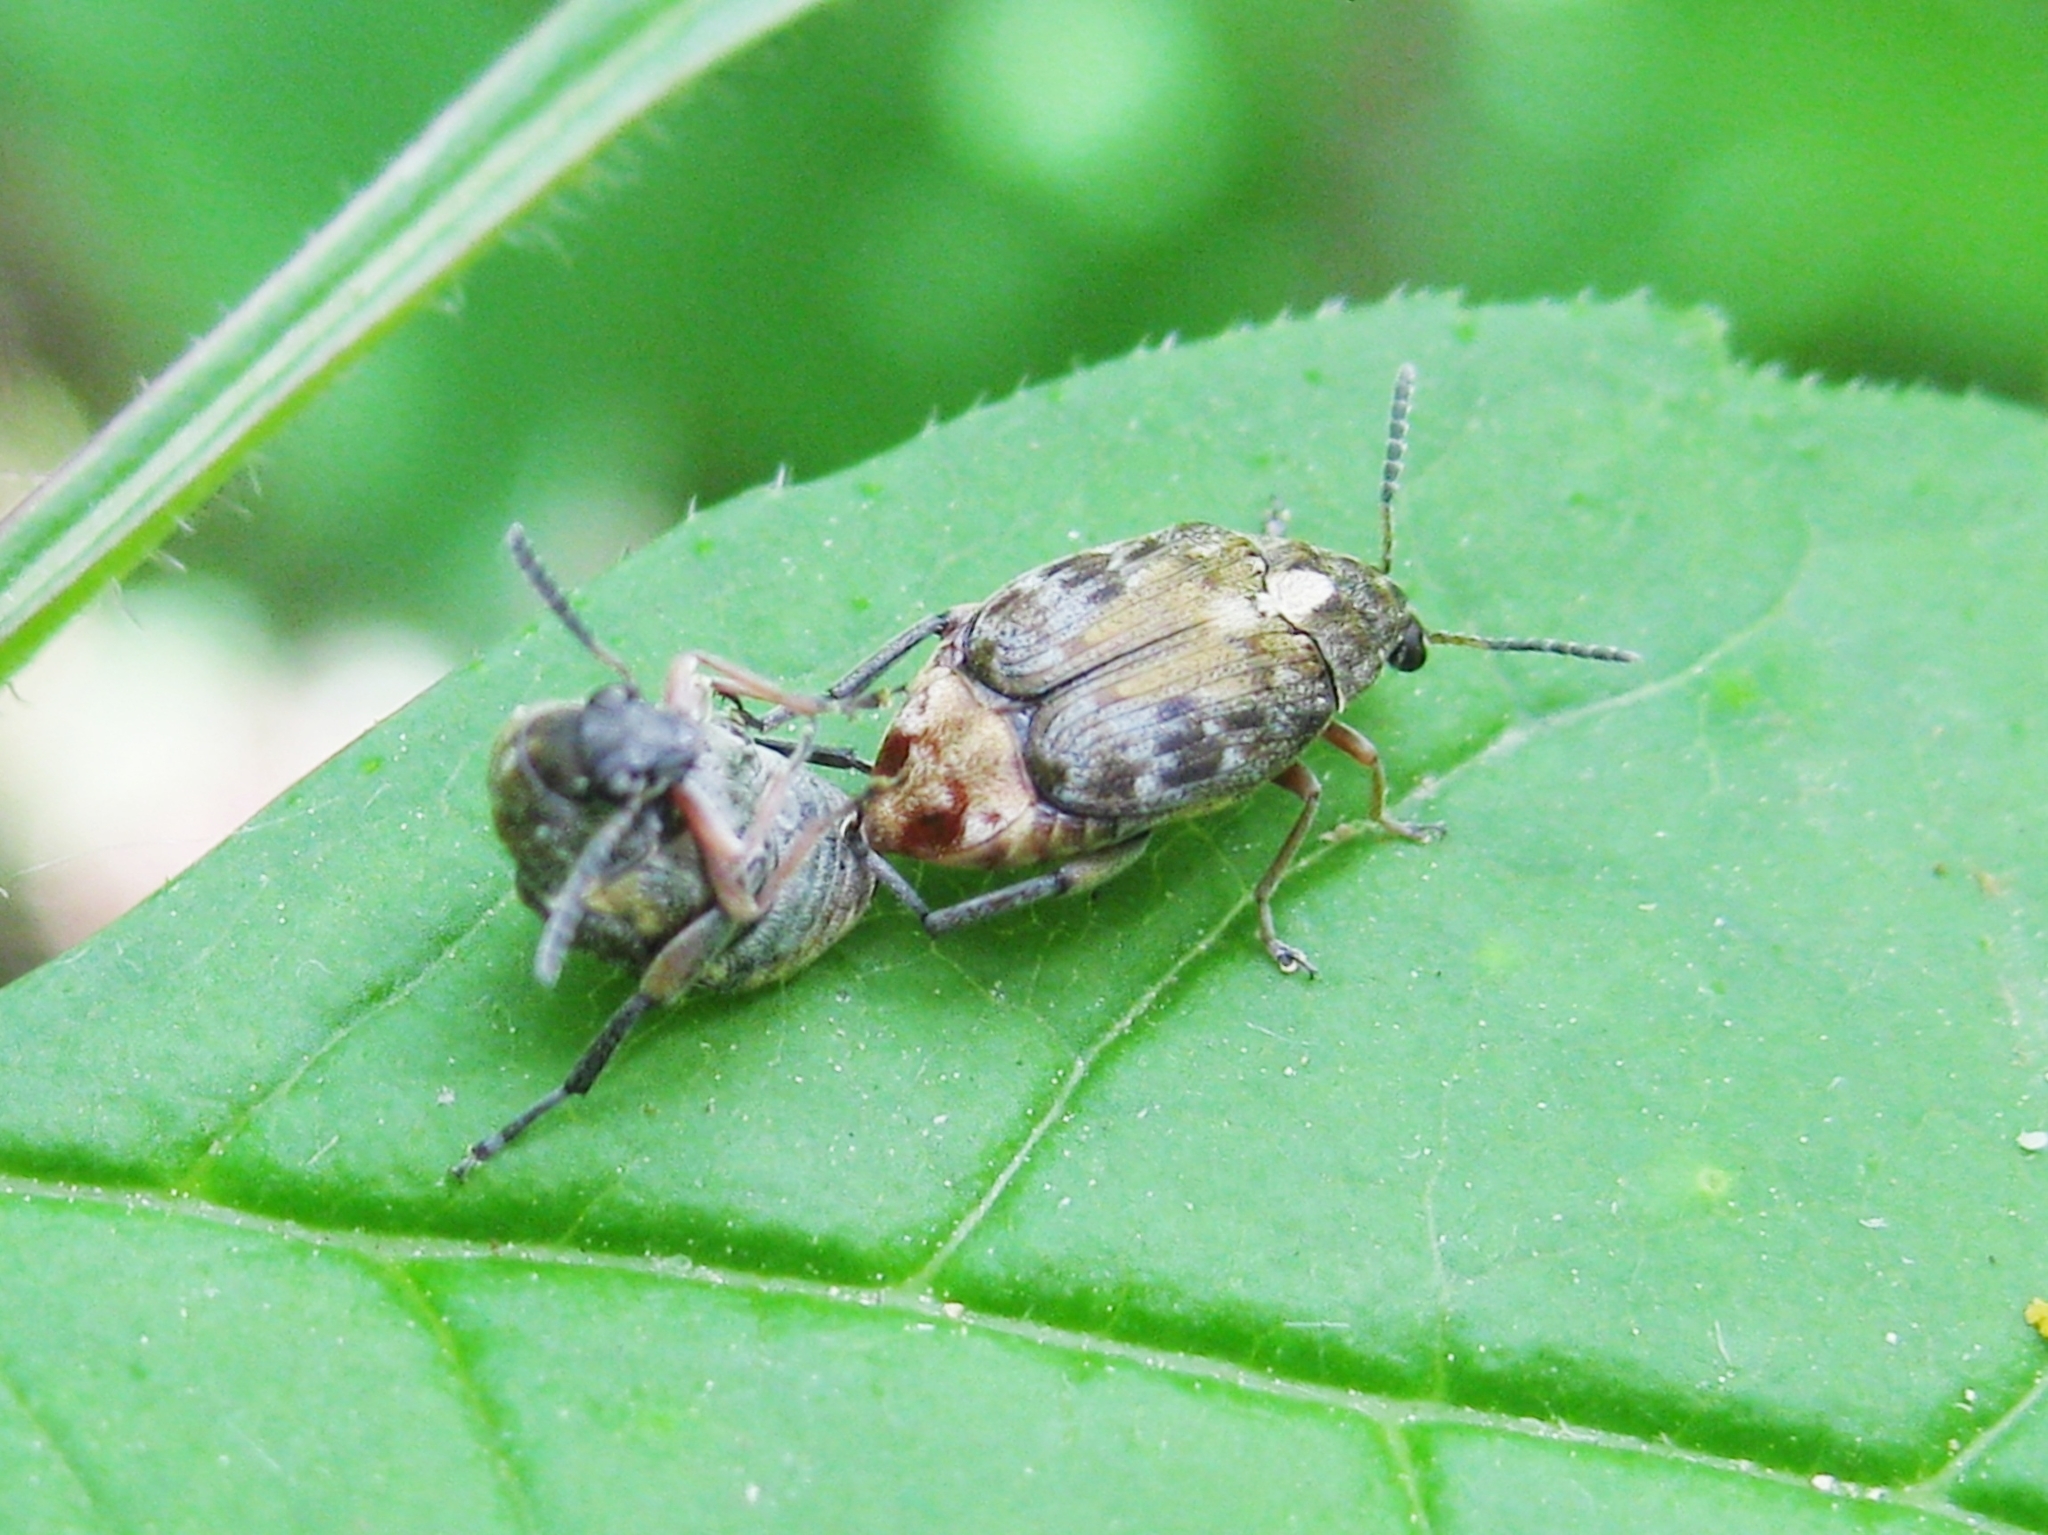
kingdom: Animalia
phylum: Arthropoda
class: Insecta
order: Coleoptera
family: Chrysomelidae
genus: Megabruchidius
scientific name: Megabruchidius dorsalis
